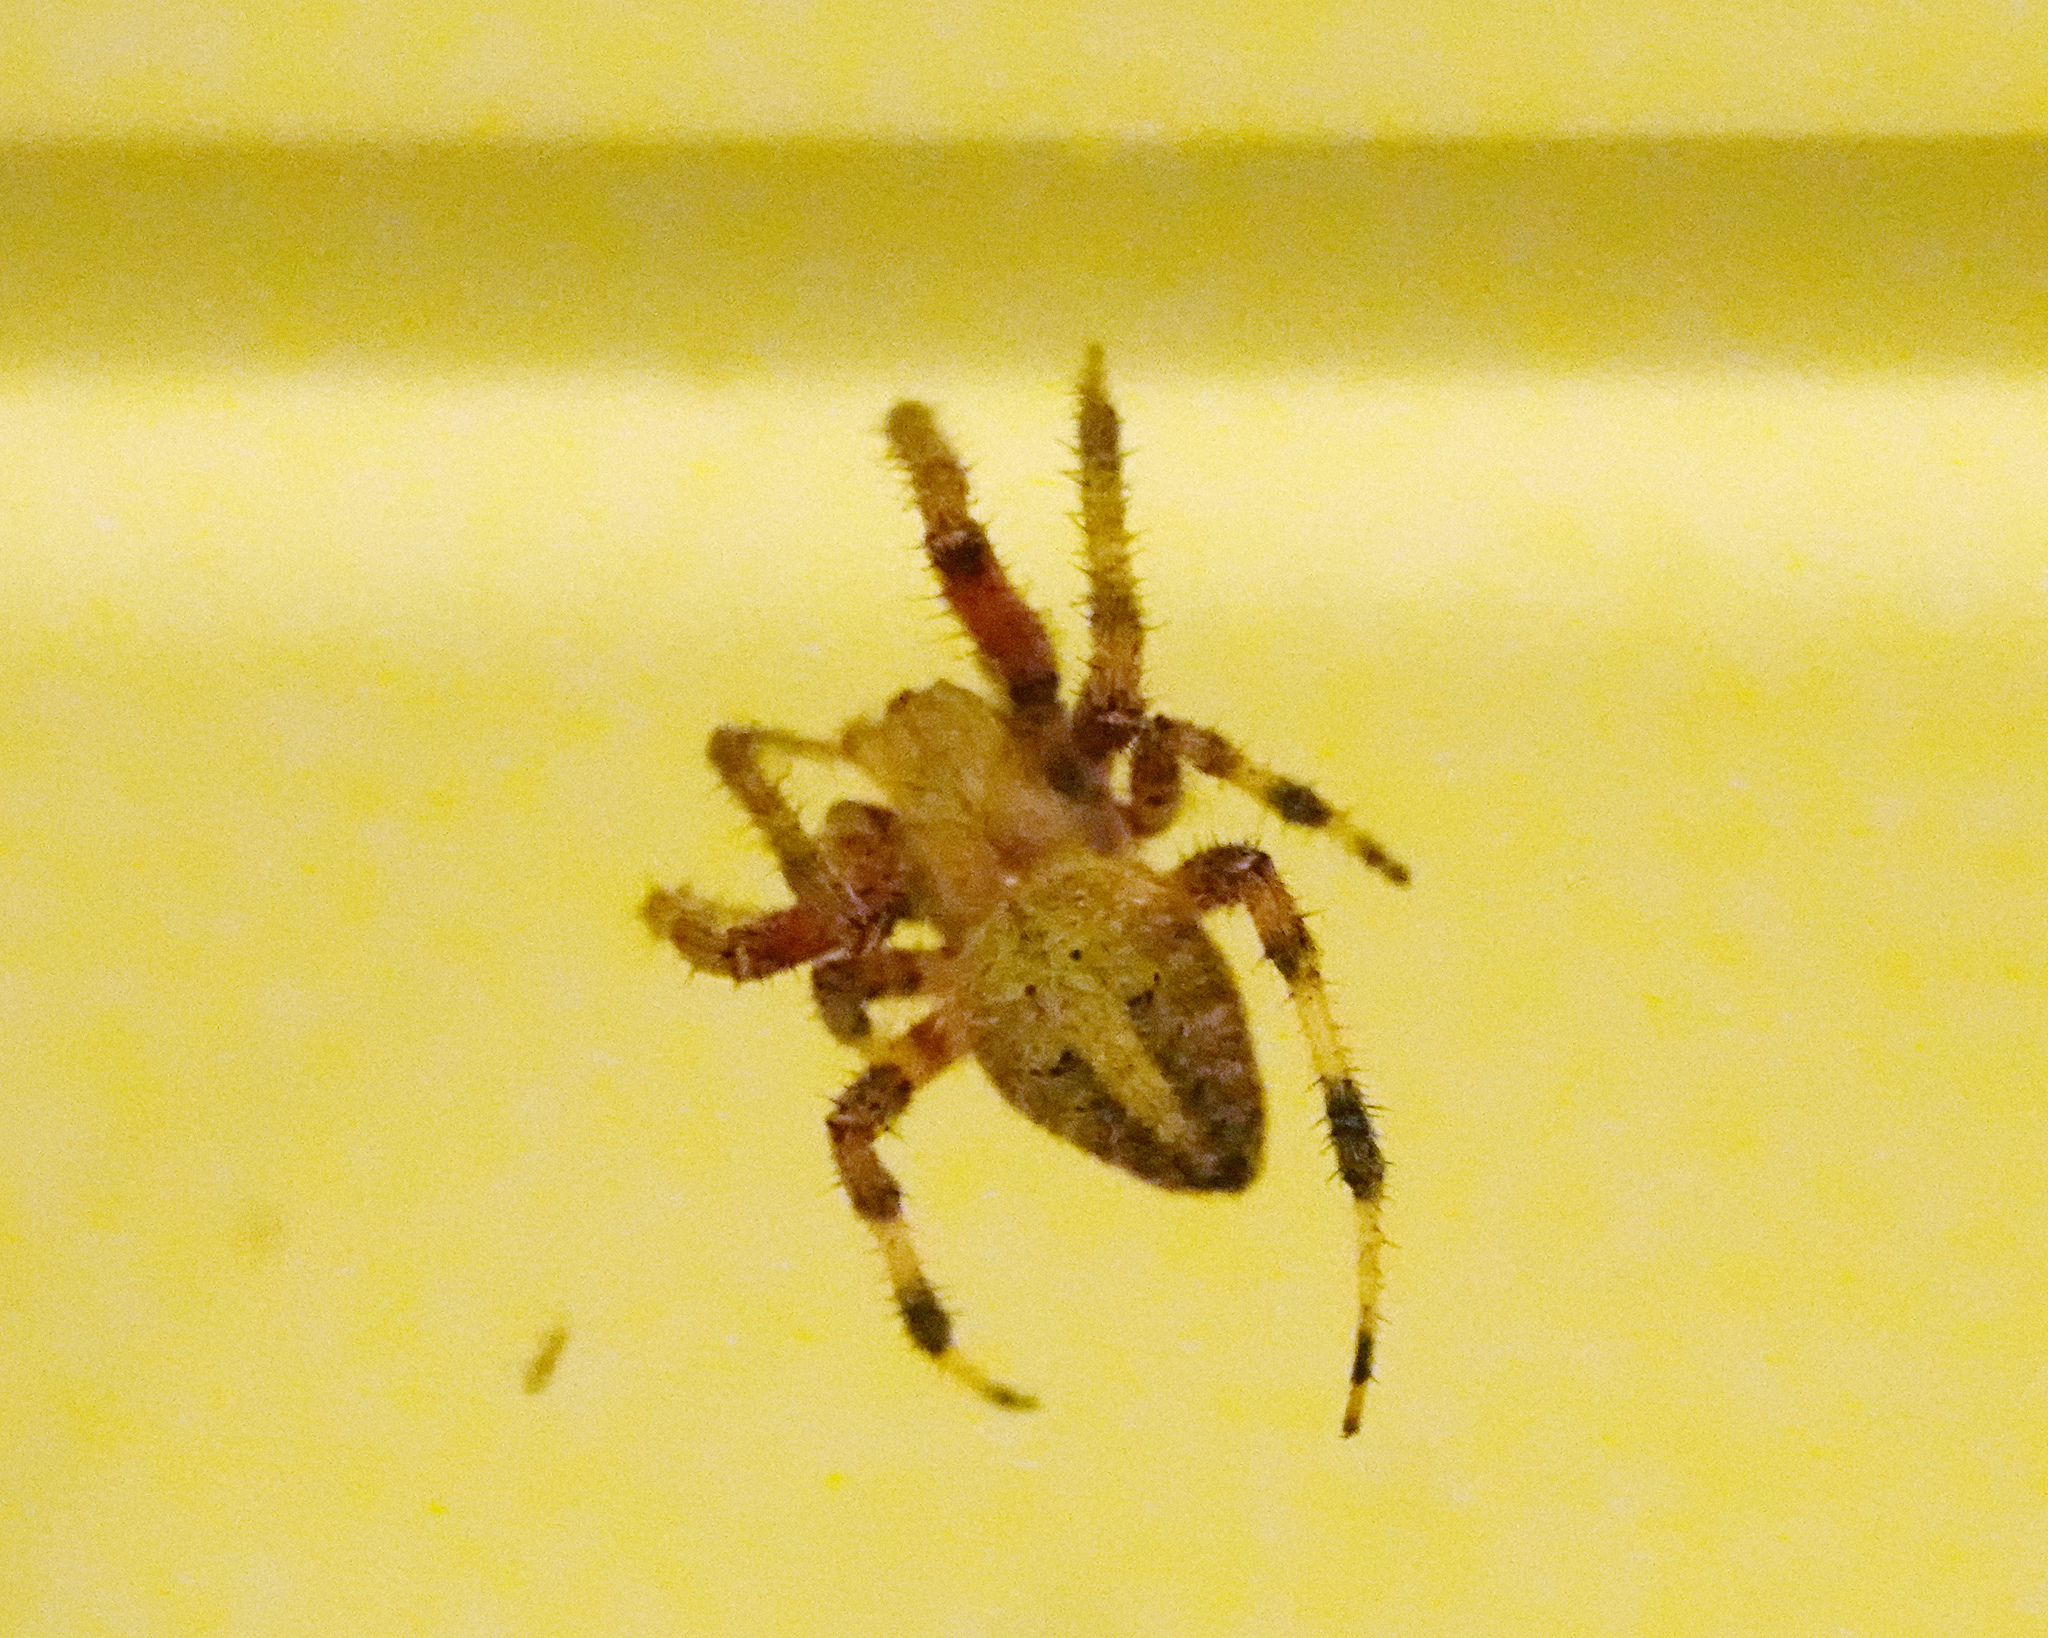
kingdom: Animalia
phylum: Arthropoda
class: Arachnida
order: Araneae
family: Araneidae
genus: Neoscona
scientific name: Neoscona crucifera
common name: Spotted orbweaver
